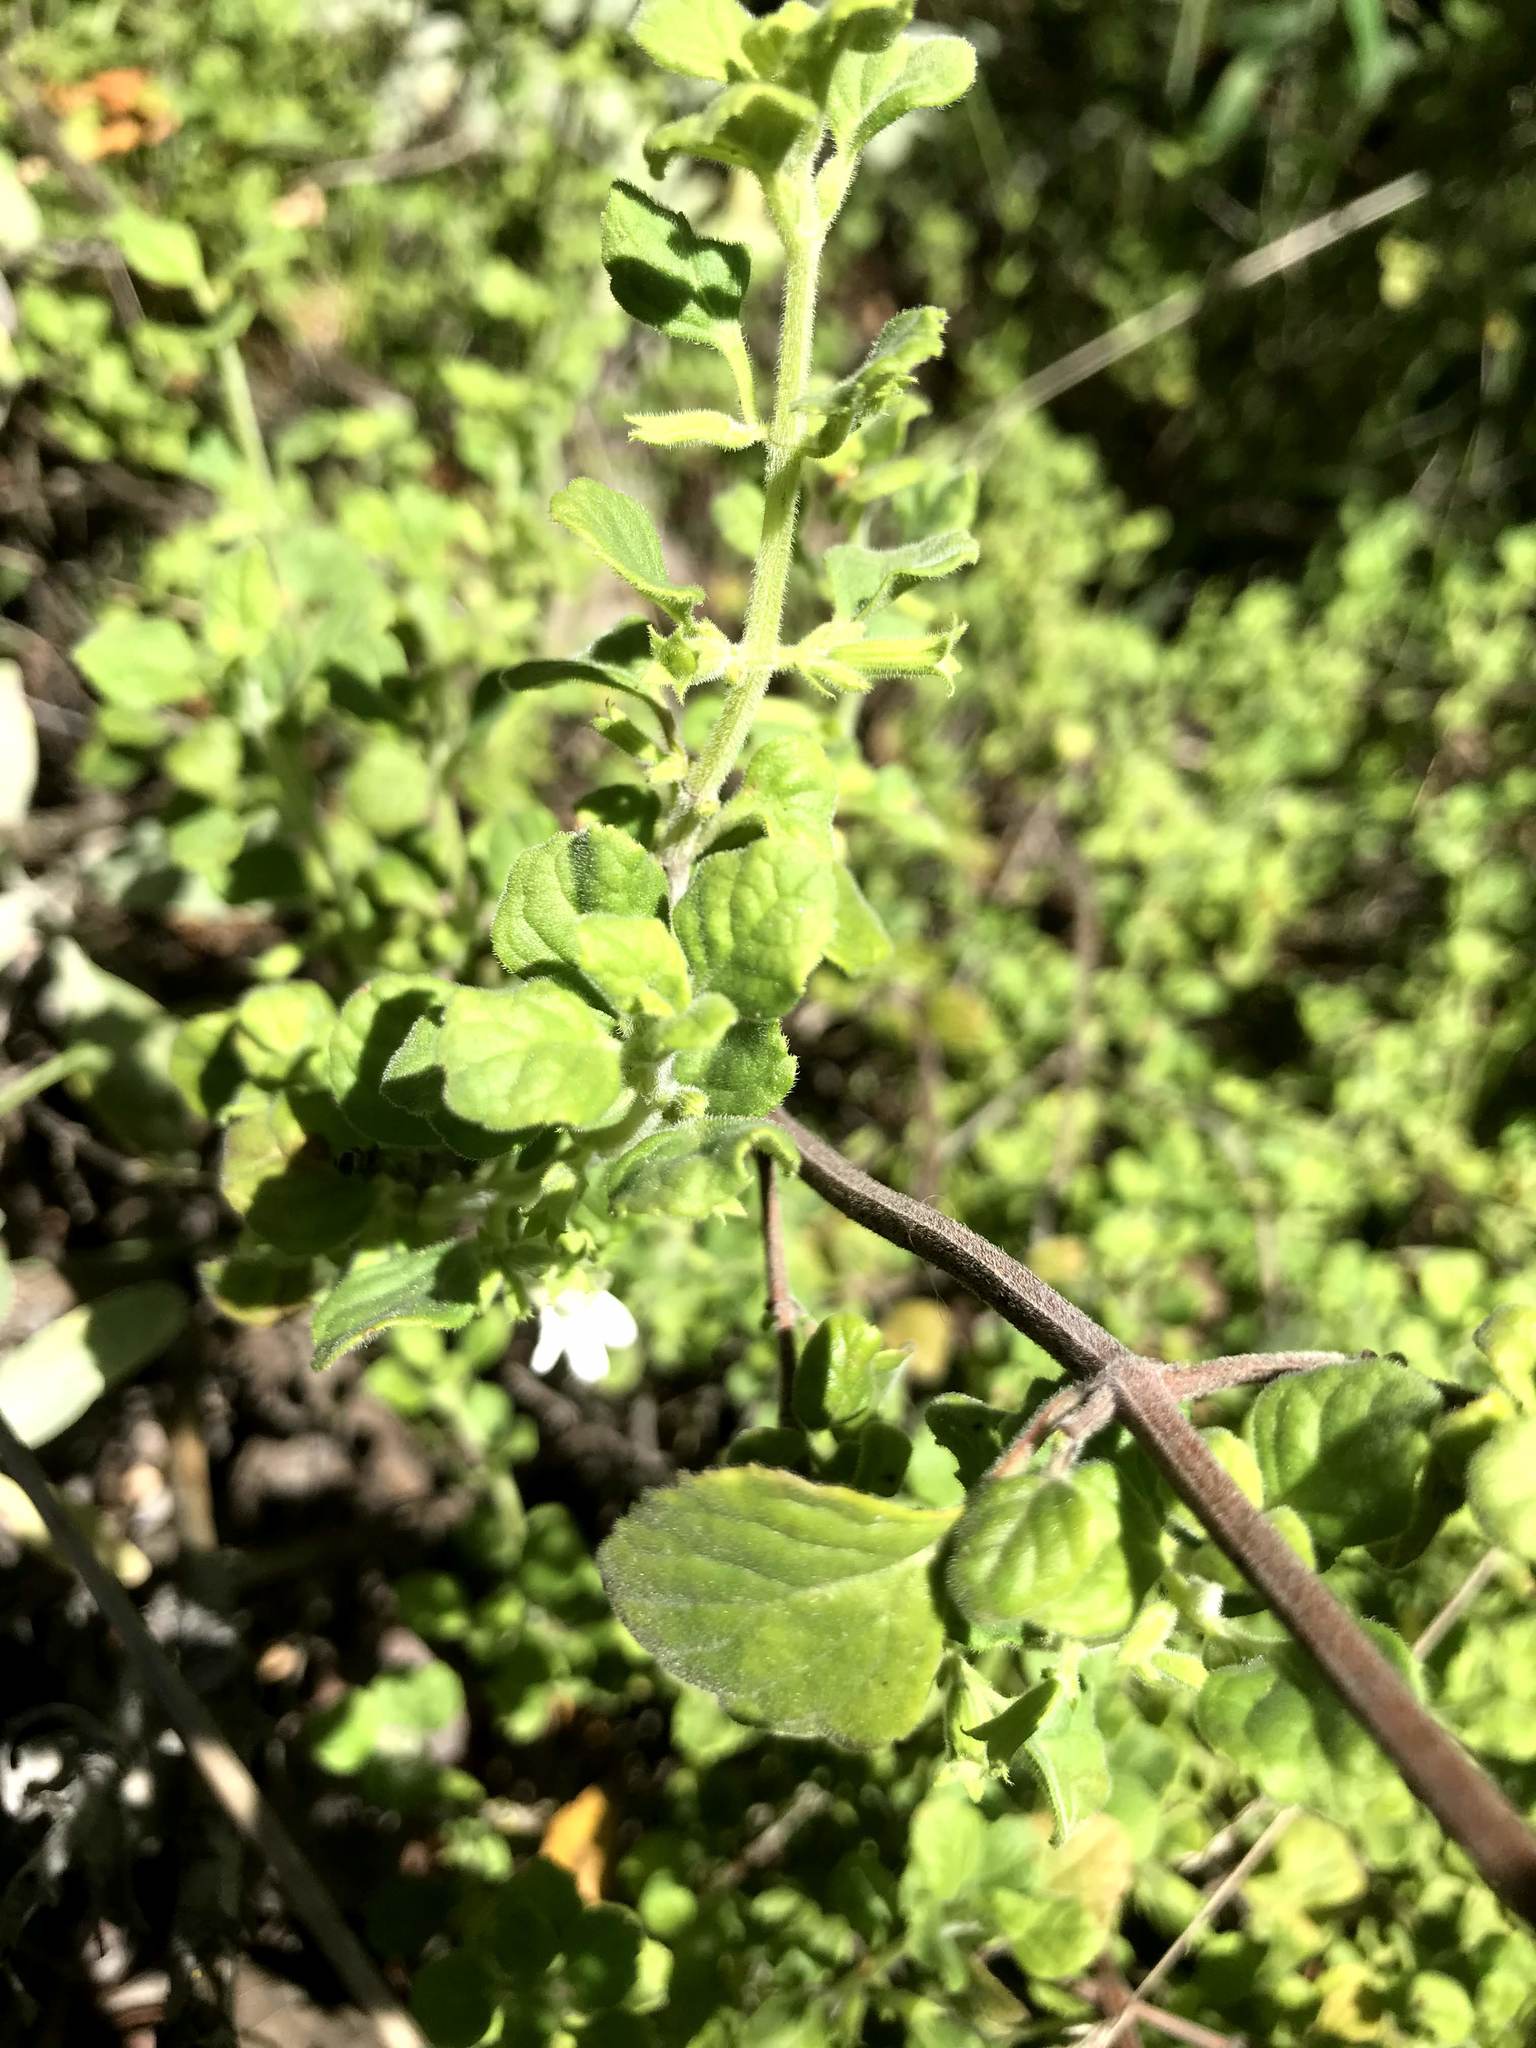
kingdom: Plantae
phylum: Tracheophyta
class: Magnoliopsida
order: Lamiales
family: Lamiaceae
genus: Clinopodium
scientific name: Clinopodium chandleri
